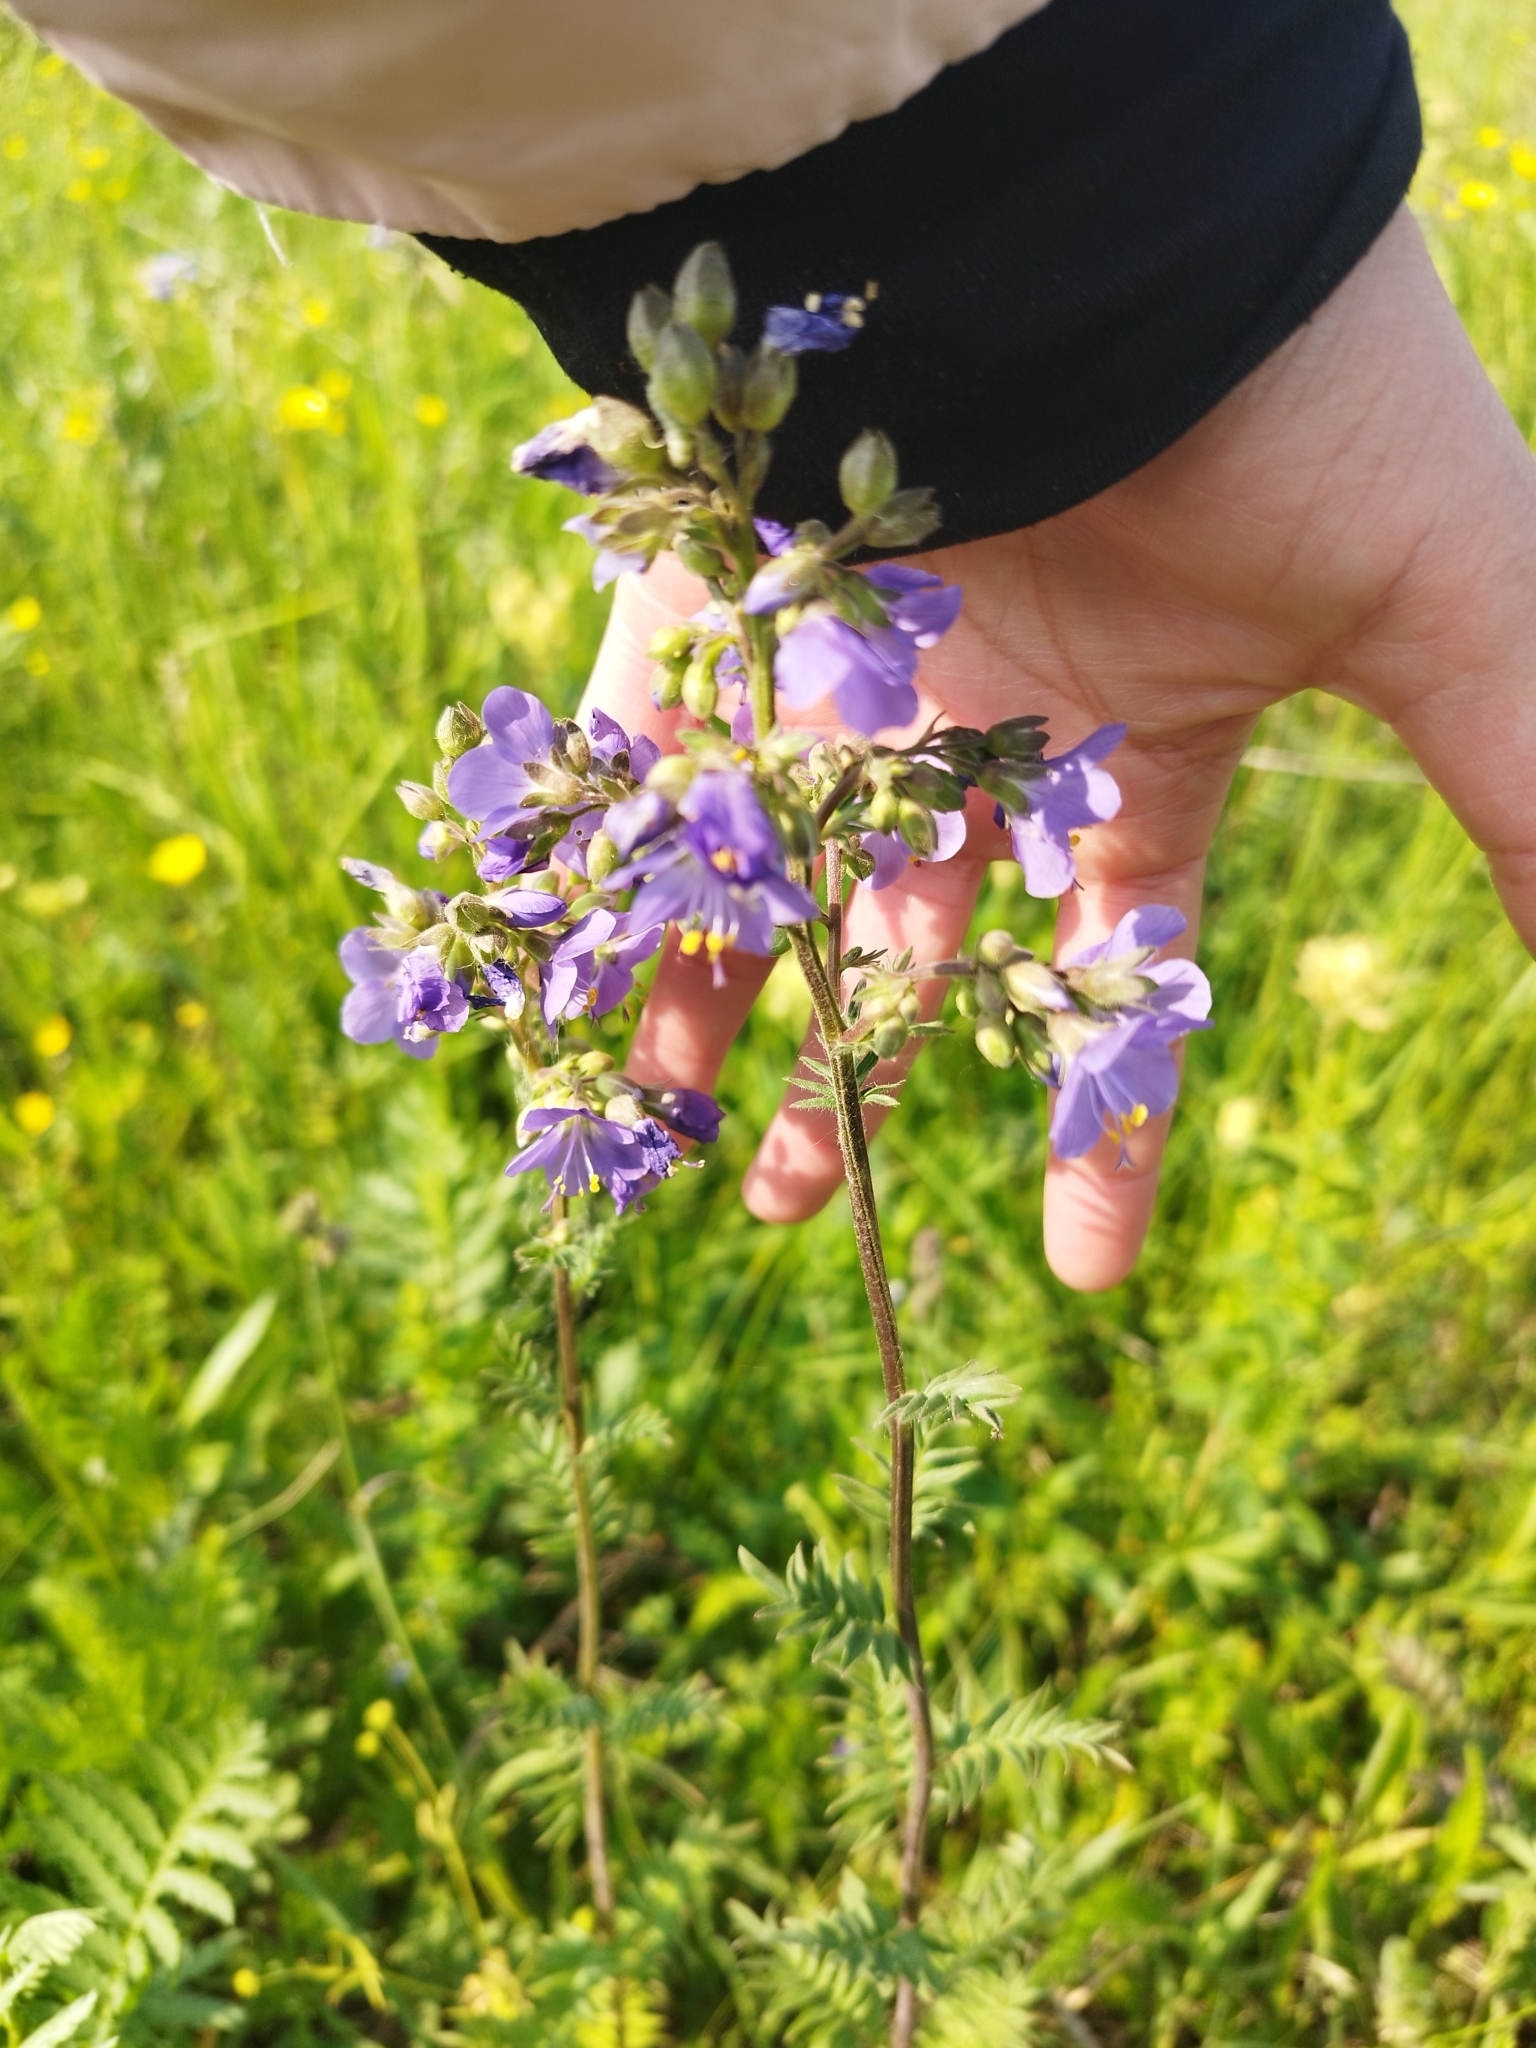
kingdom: Plantae
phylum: Tracheophyta
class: Magnoliopsida
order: Ericales
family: Polemoniaceae
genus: Polemonium
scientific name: Polemonium caeruleum
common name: Jacob's-ladder
